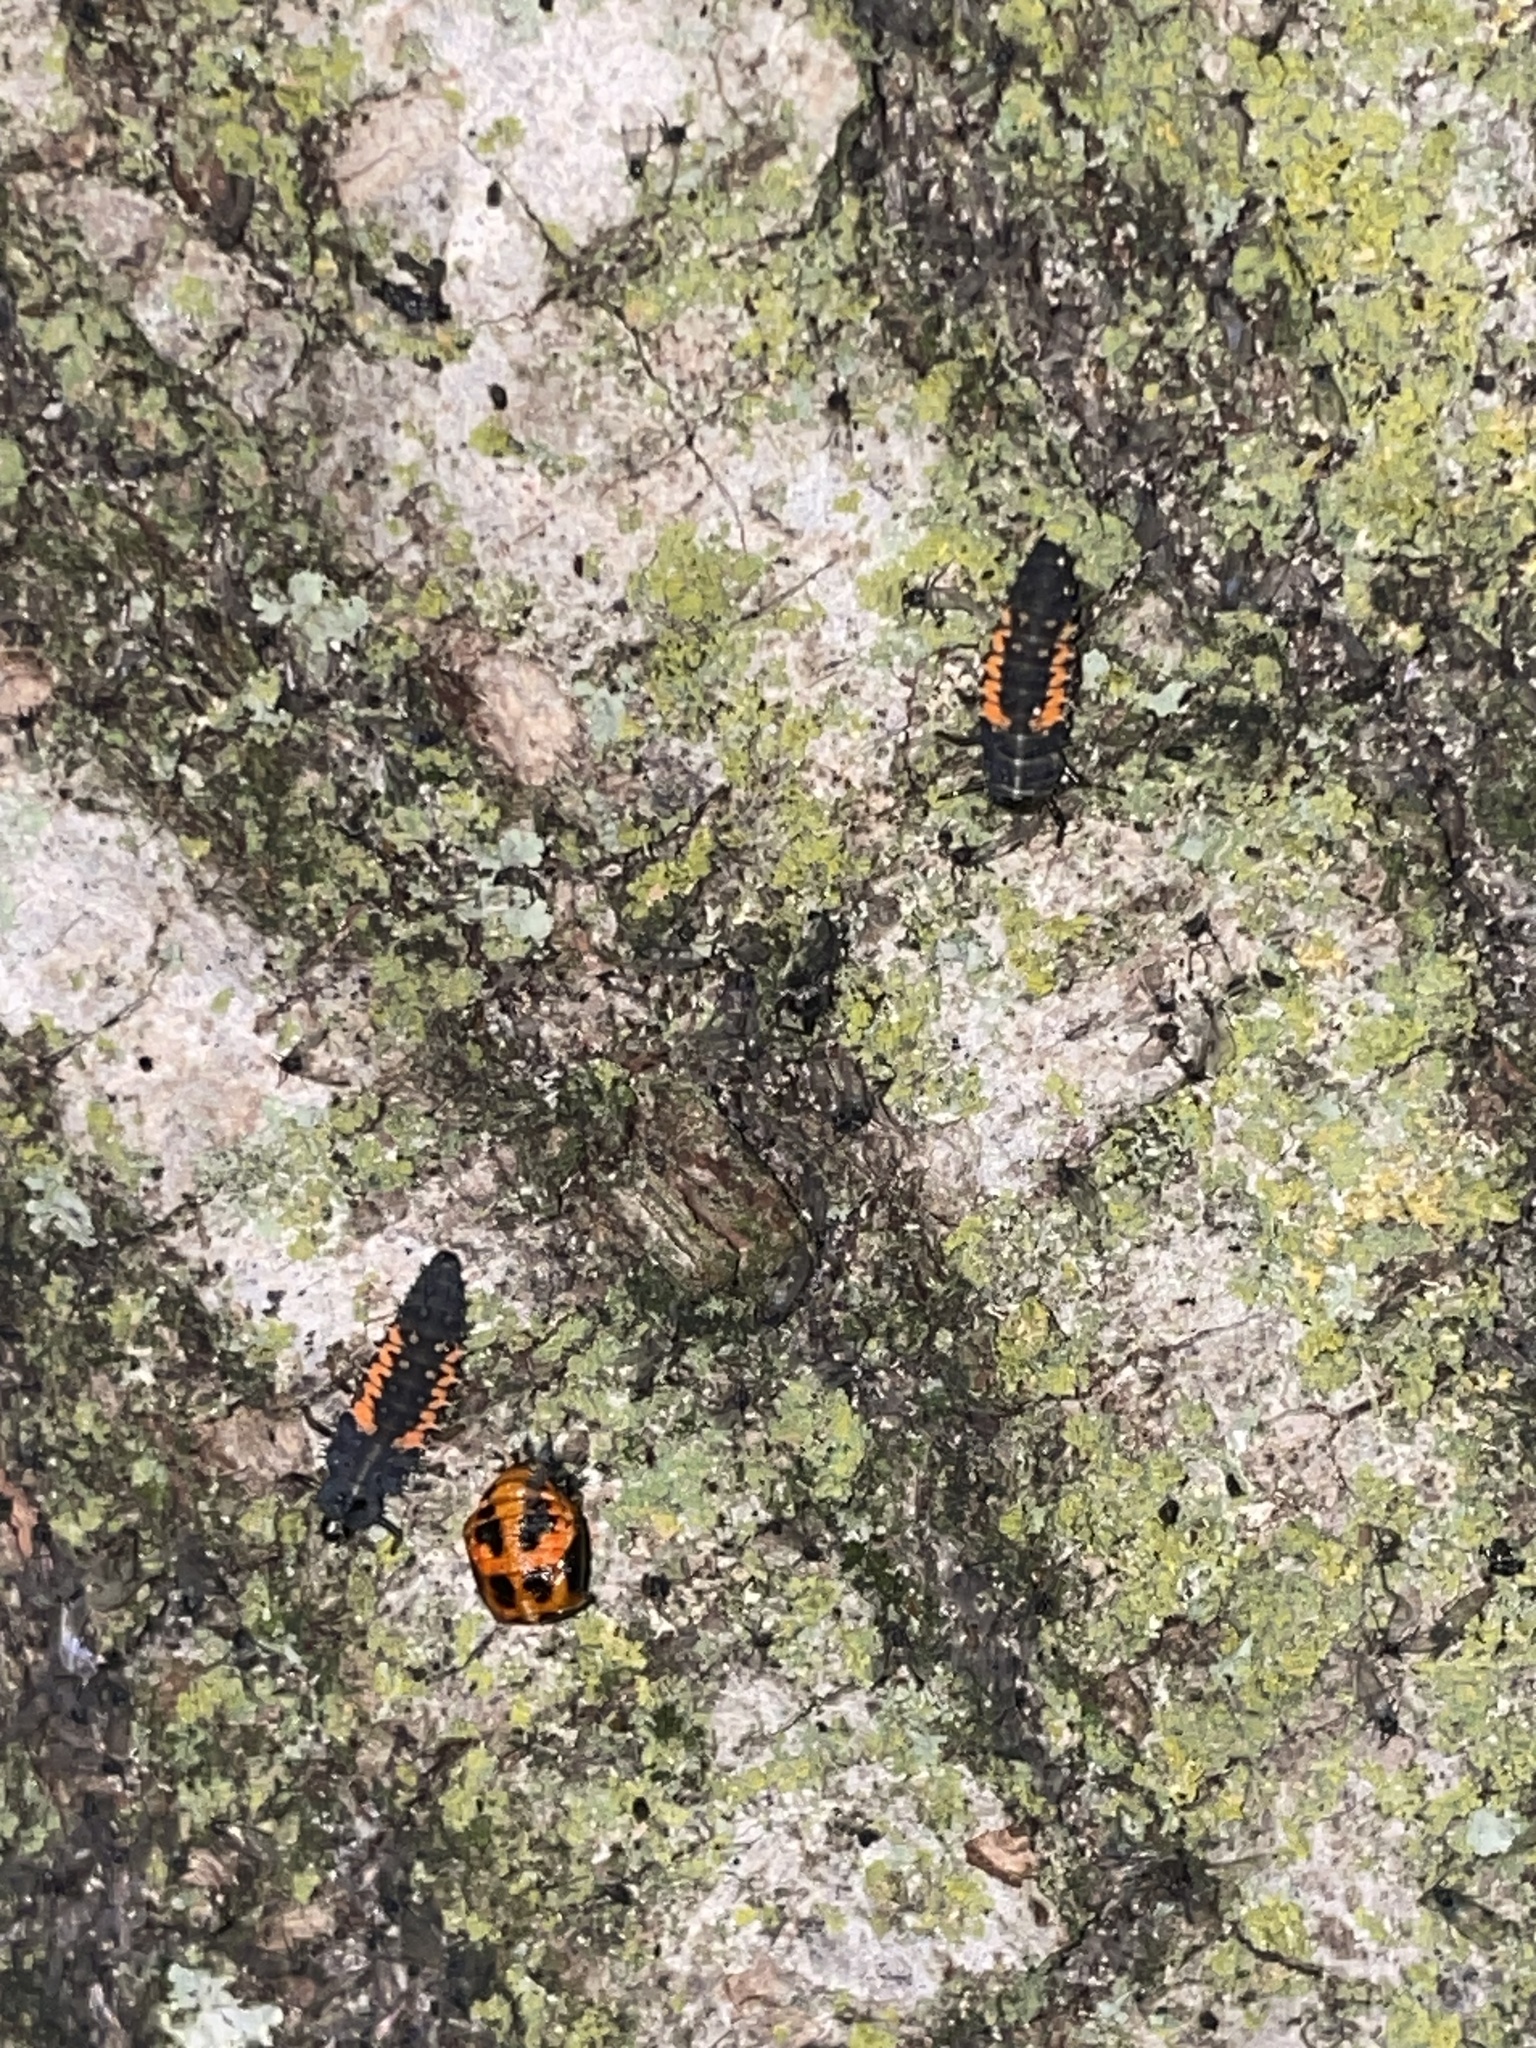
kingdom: Animalia
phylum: Arthropoda
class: Insecta
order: Coleoptera
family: Coccinellidae
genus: Harmonia
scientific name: Harmonia axyridis
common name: Harlequin ladybird
